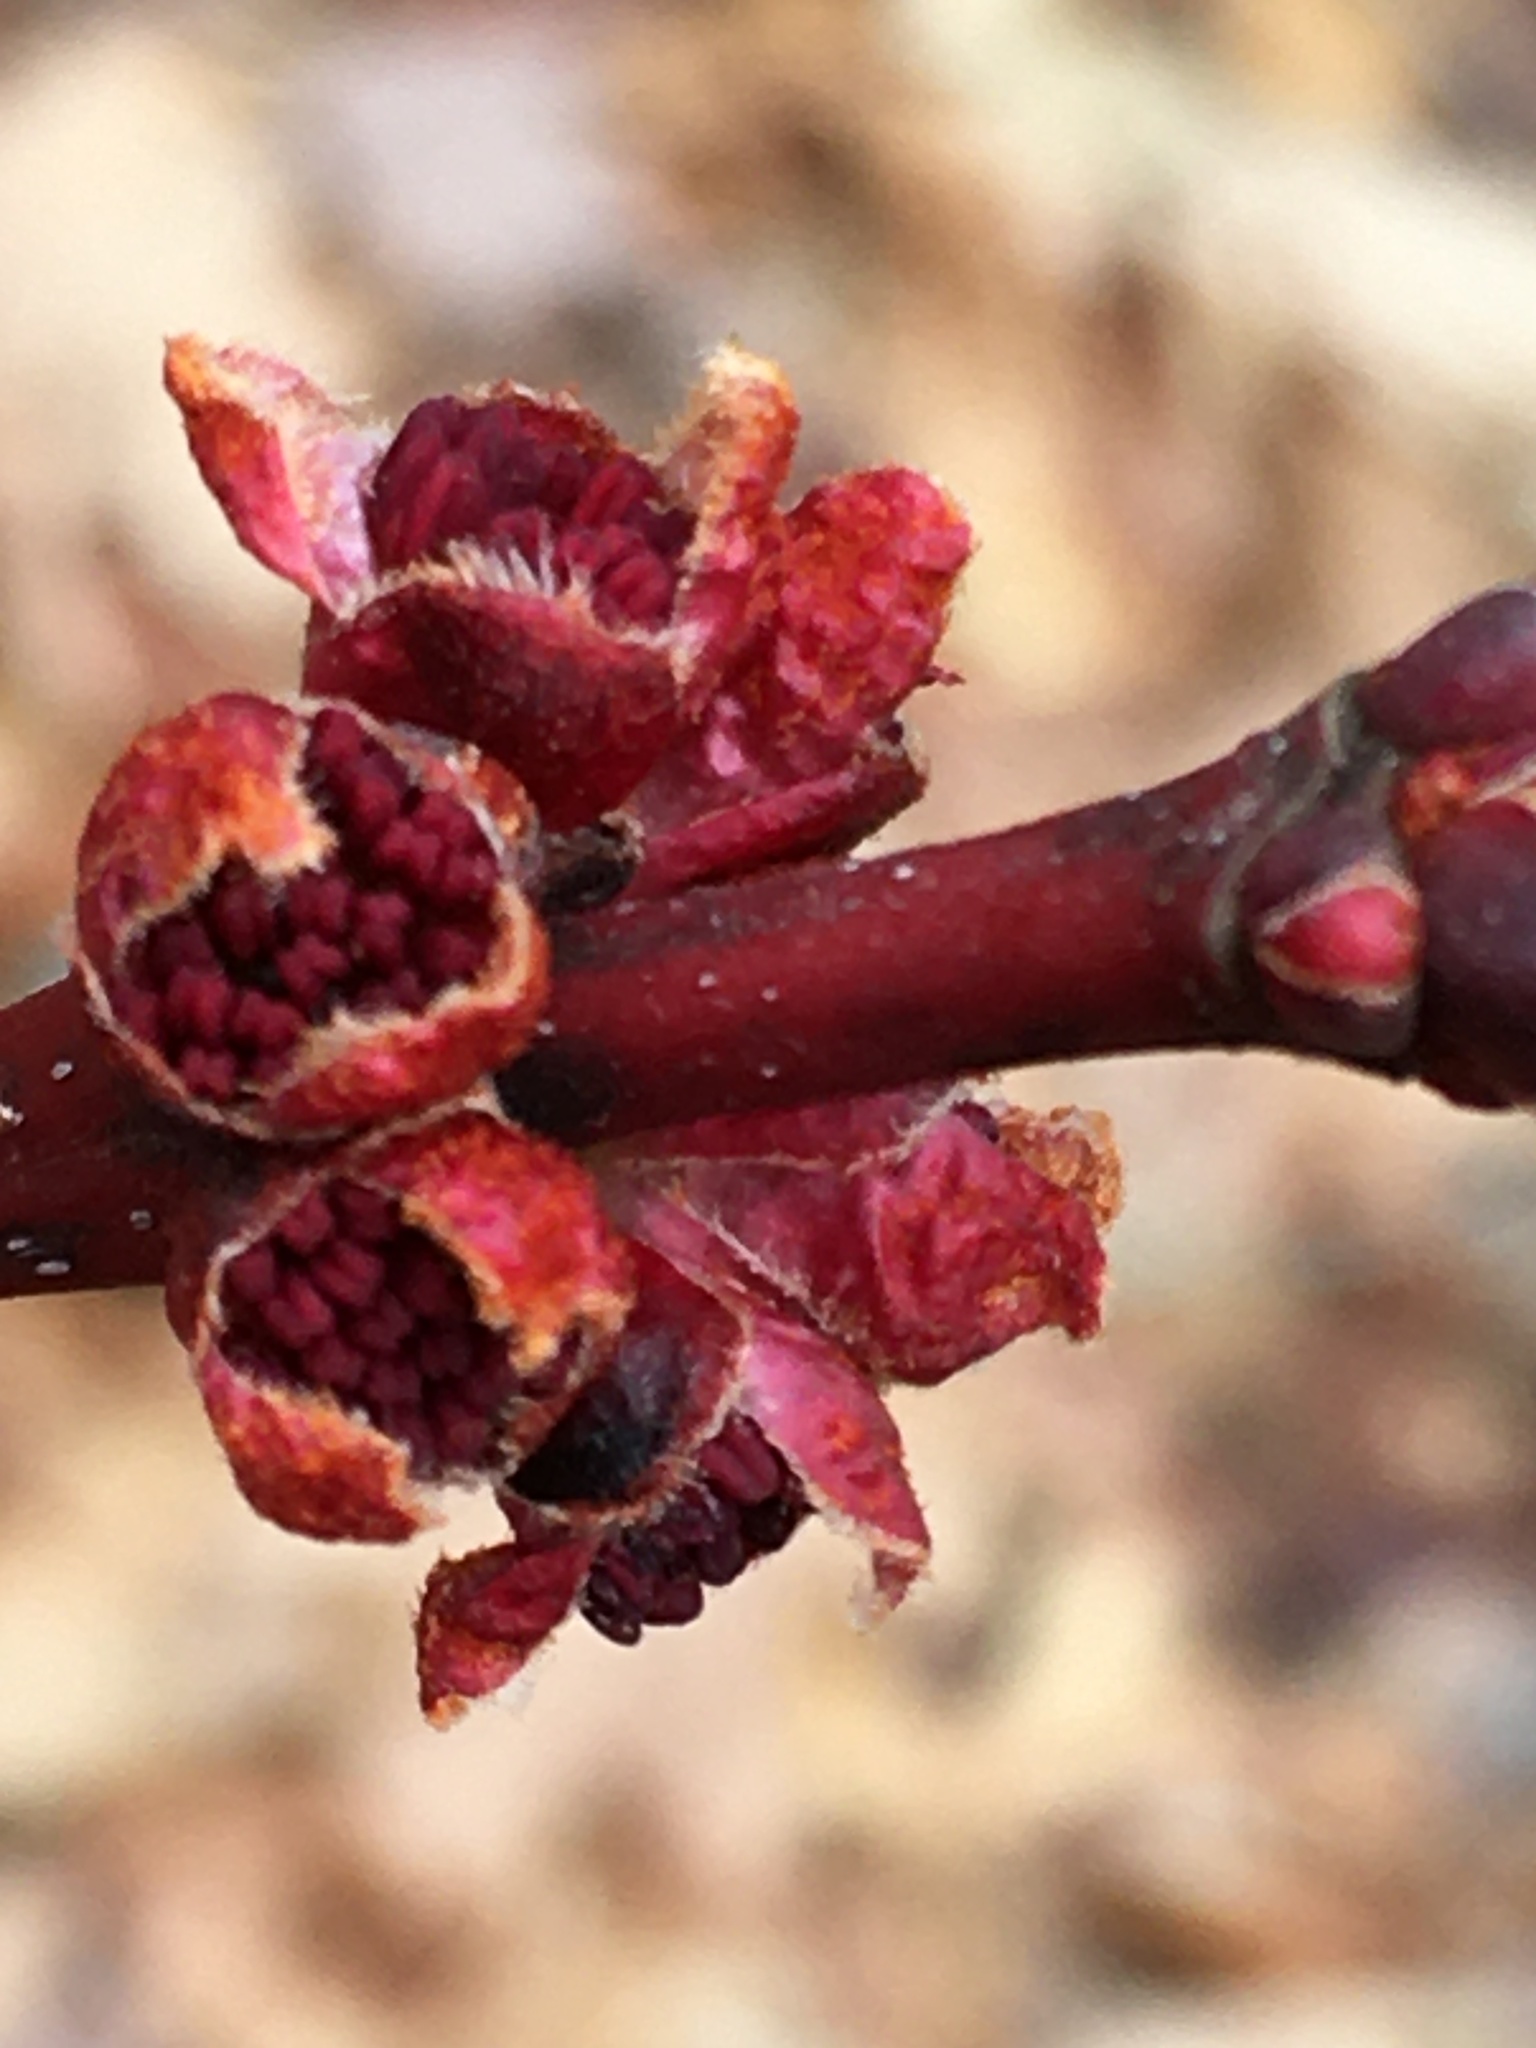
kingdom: Plantae
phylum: Tracheophyta
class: Magnoliopsida
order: Sapindales
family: Sapindaceae
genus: Acer
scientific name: Acer
